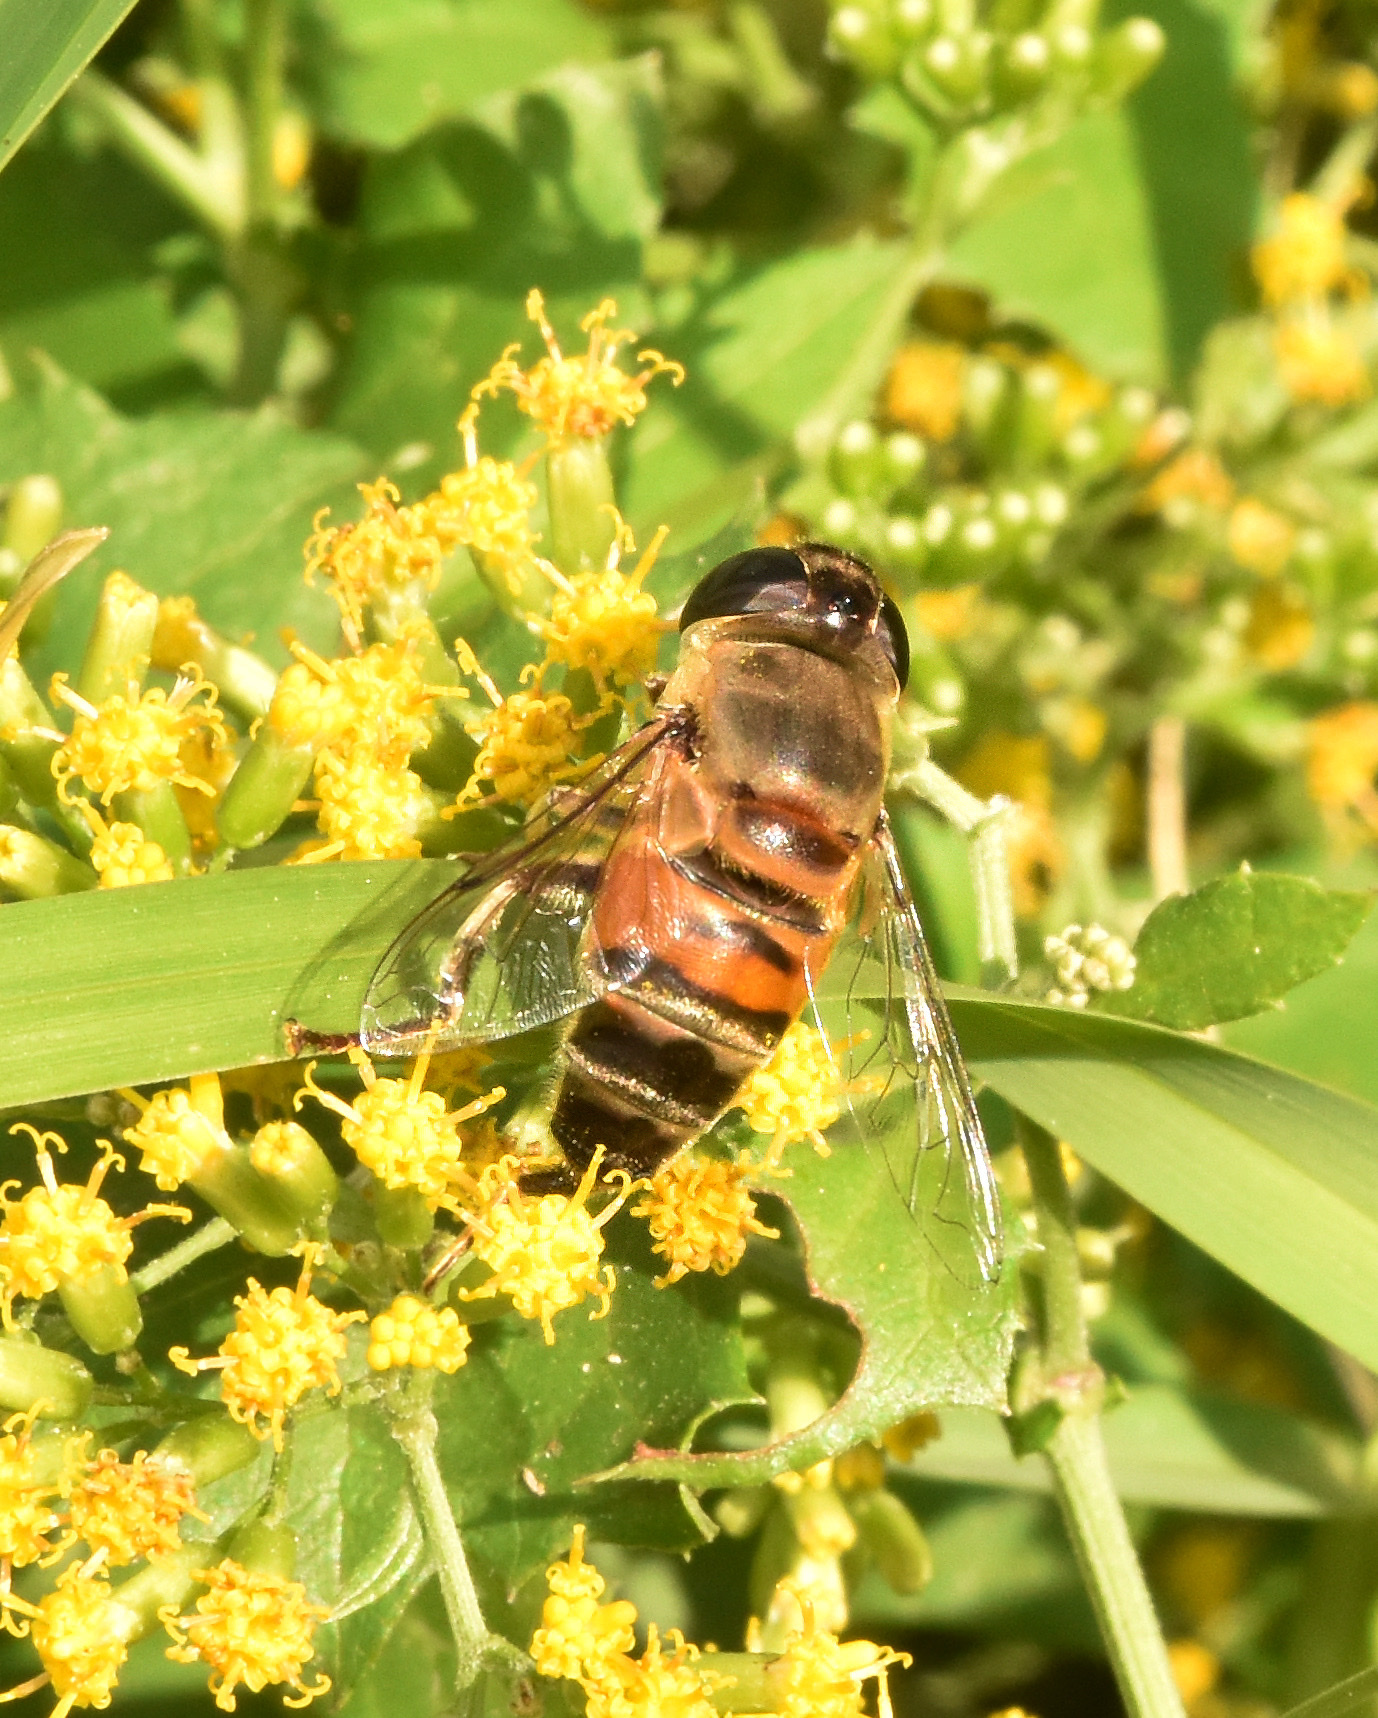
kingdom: Animalia
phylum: Arthropoda
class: Insecta
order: Diptera
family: Syrphidae
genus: Phytomia
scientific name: Phytomia incisa
